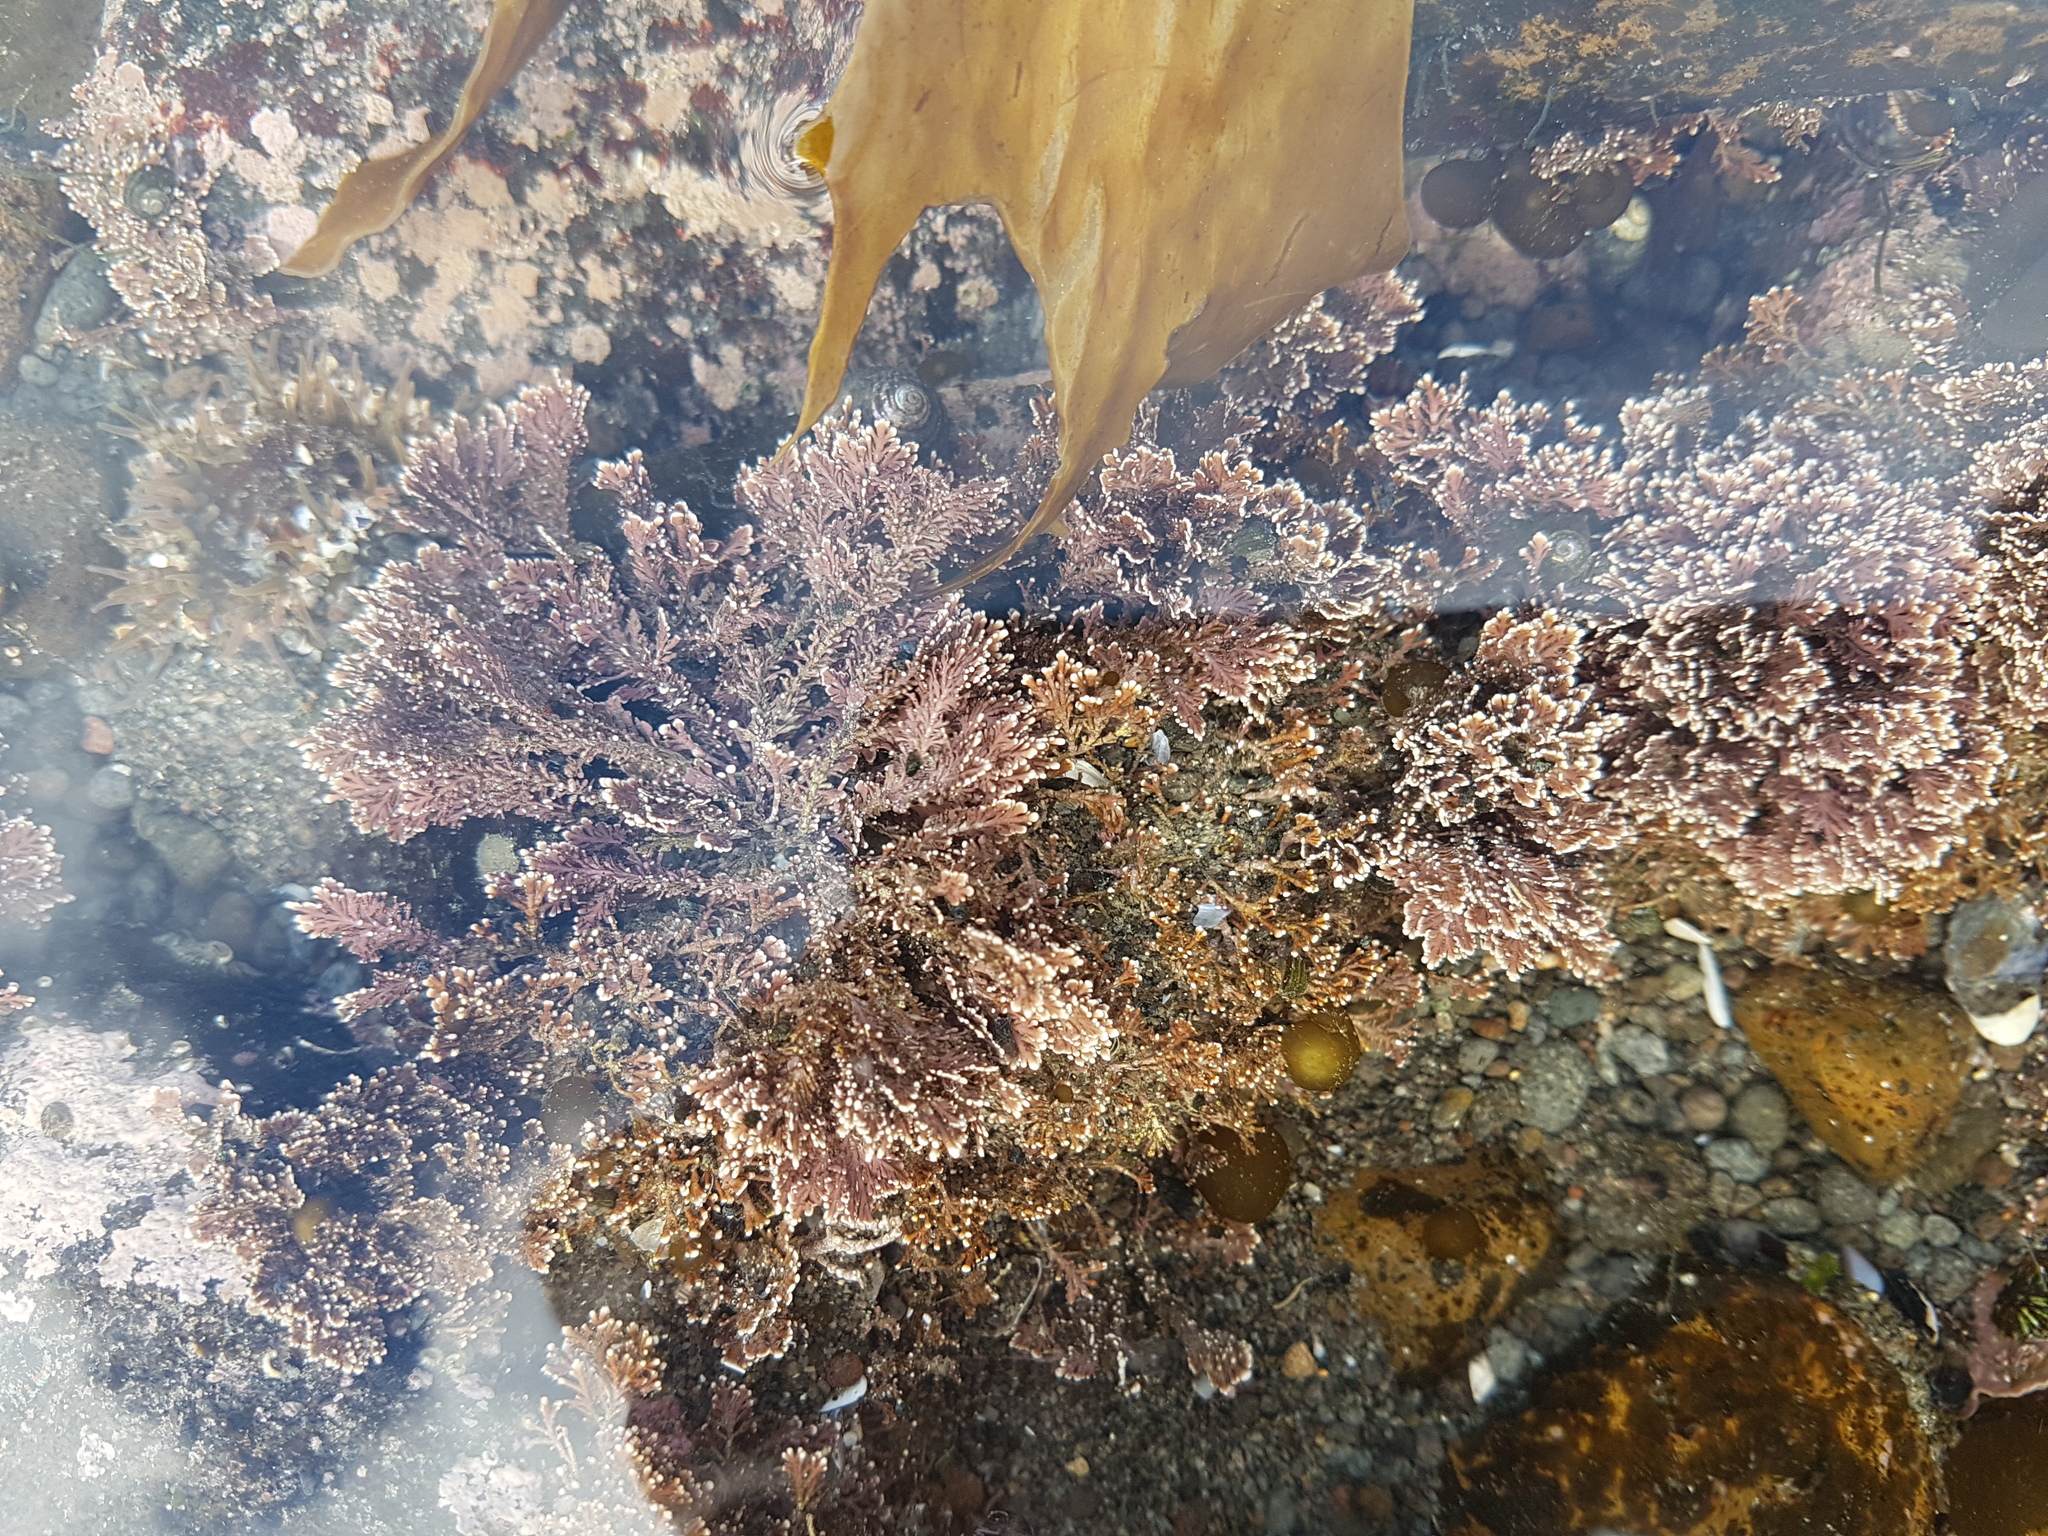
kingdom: Plantae
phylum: Rhodophyta
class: Florideophyceae
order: Corallinales
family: Corallinaceae
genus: Corallina
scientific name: Corallina officinalis
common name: Coral weed
